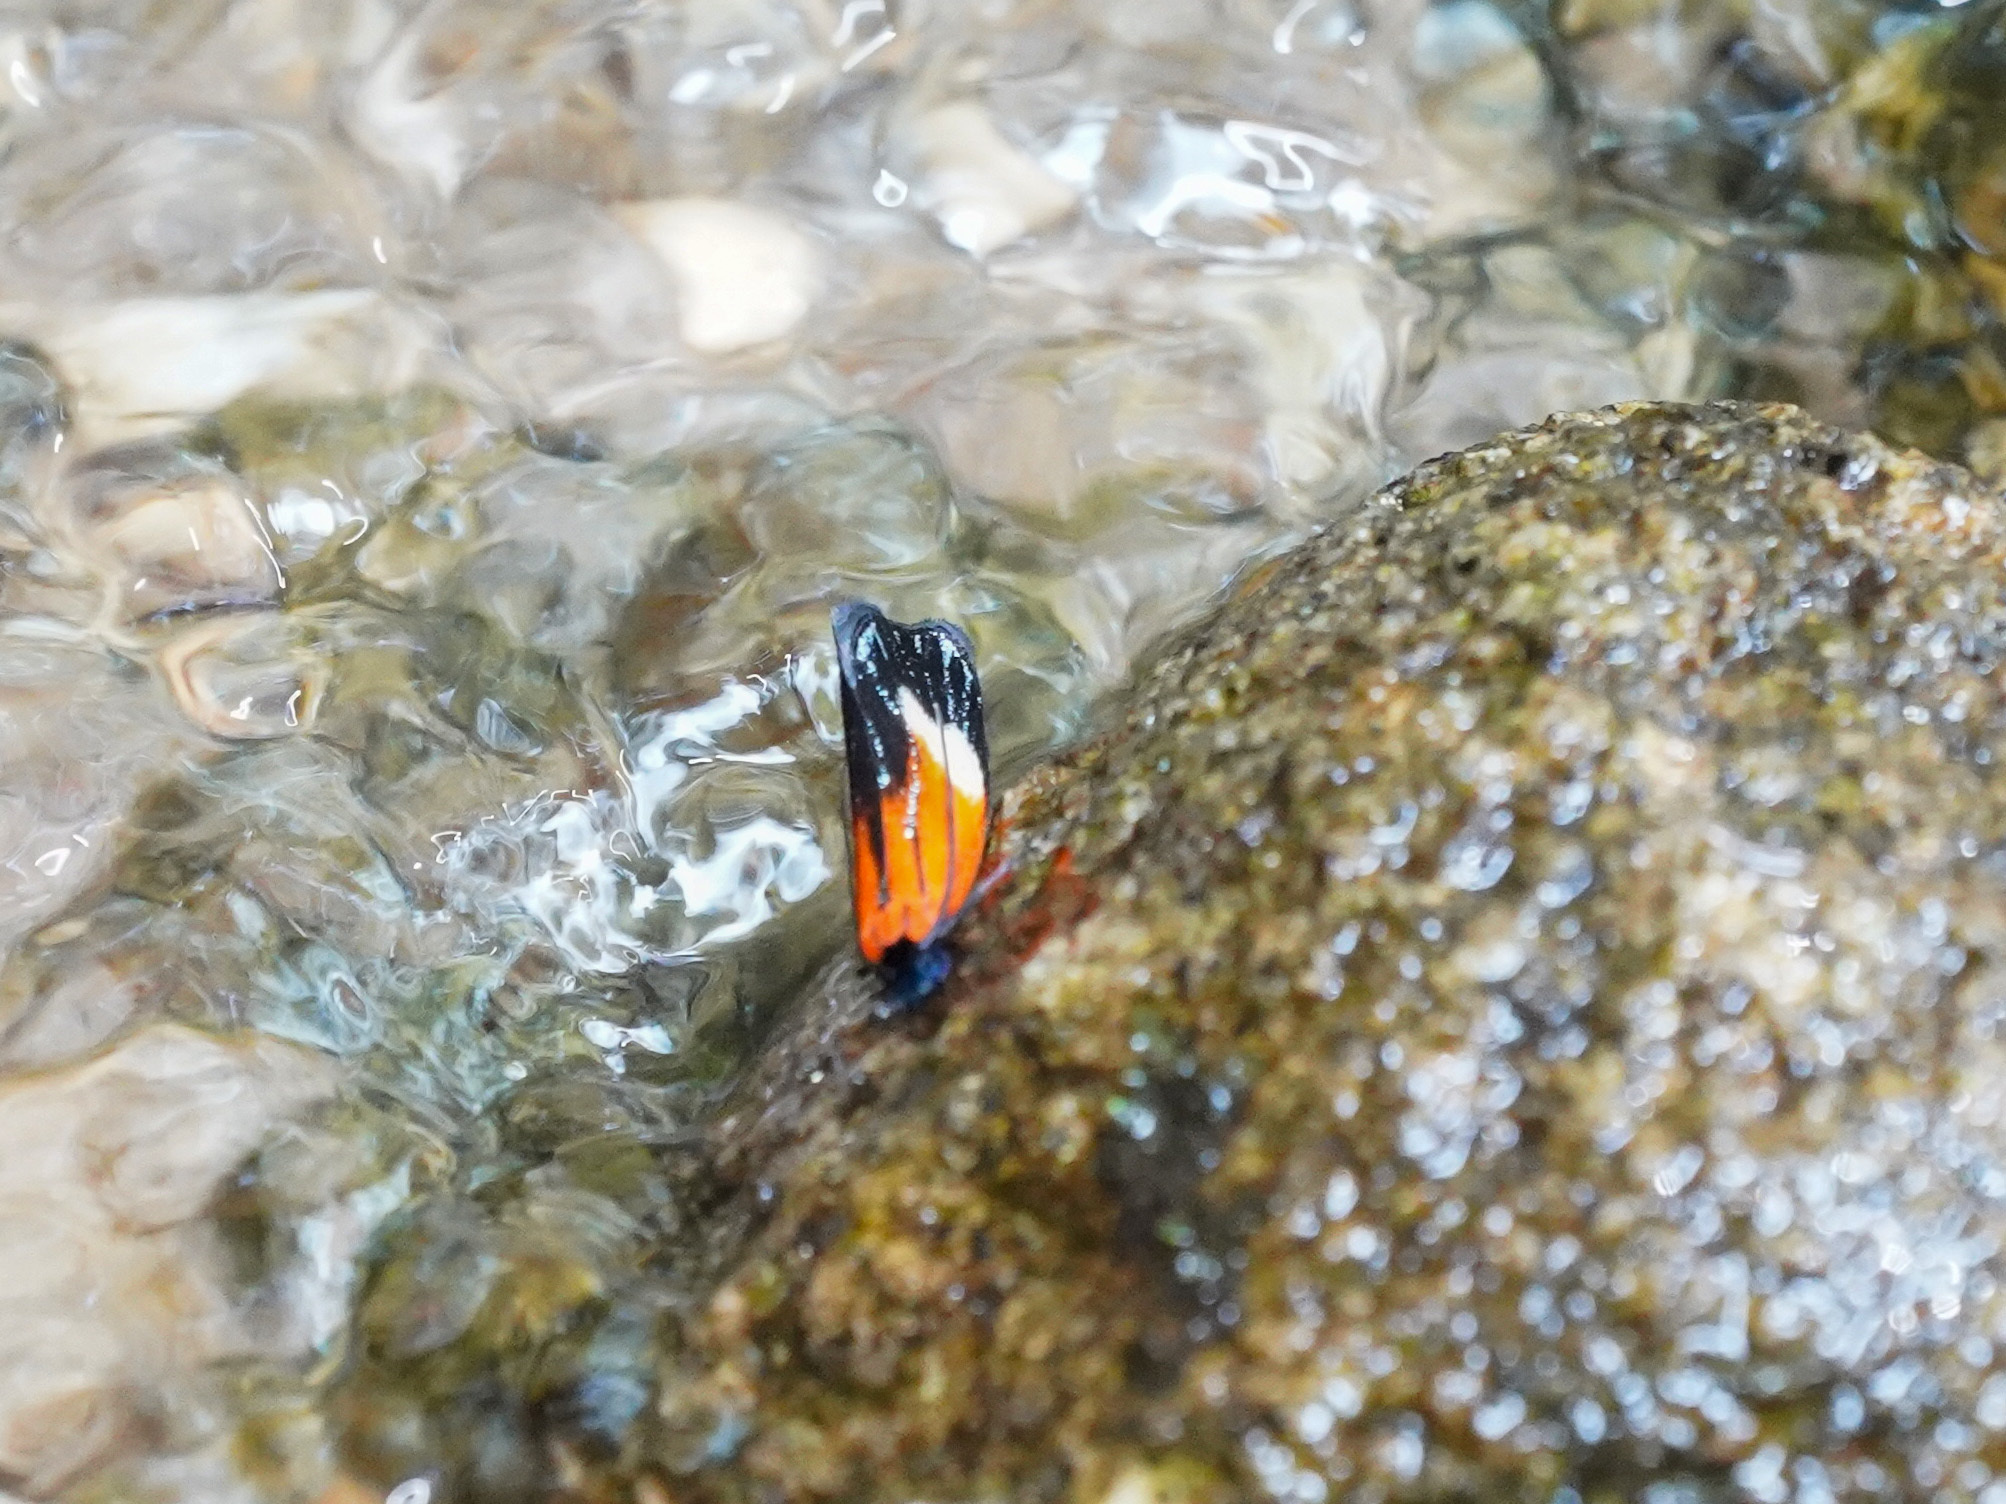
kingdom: Animalia
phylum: Arthropoda
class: Insecta
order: Lepidoptera
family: Tineidae
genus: Coryptilum
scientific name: Coryptilum rutilella
